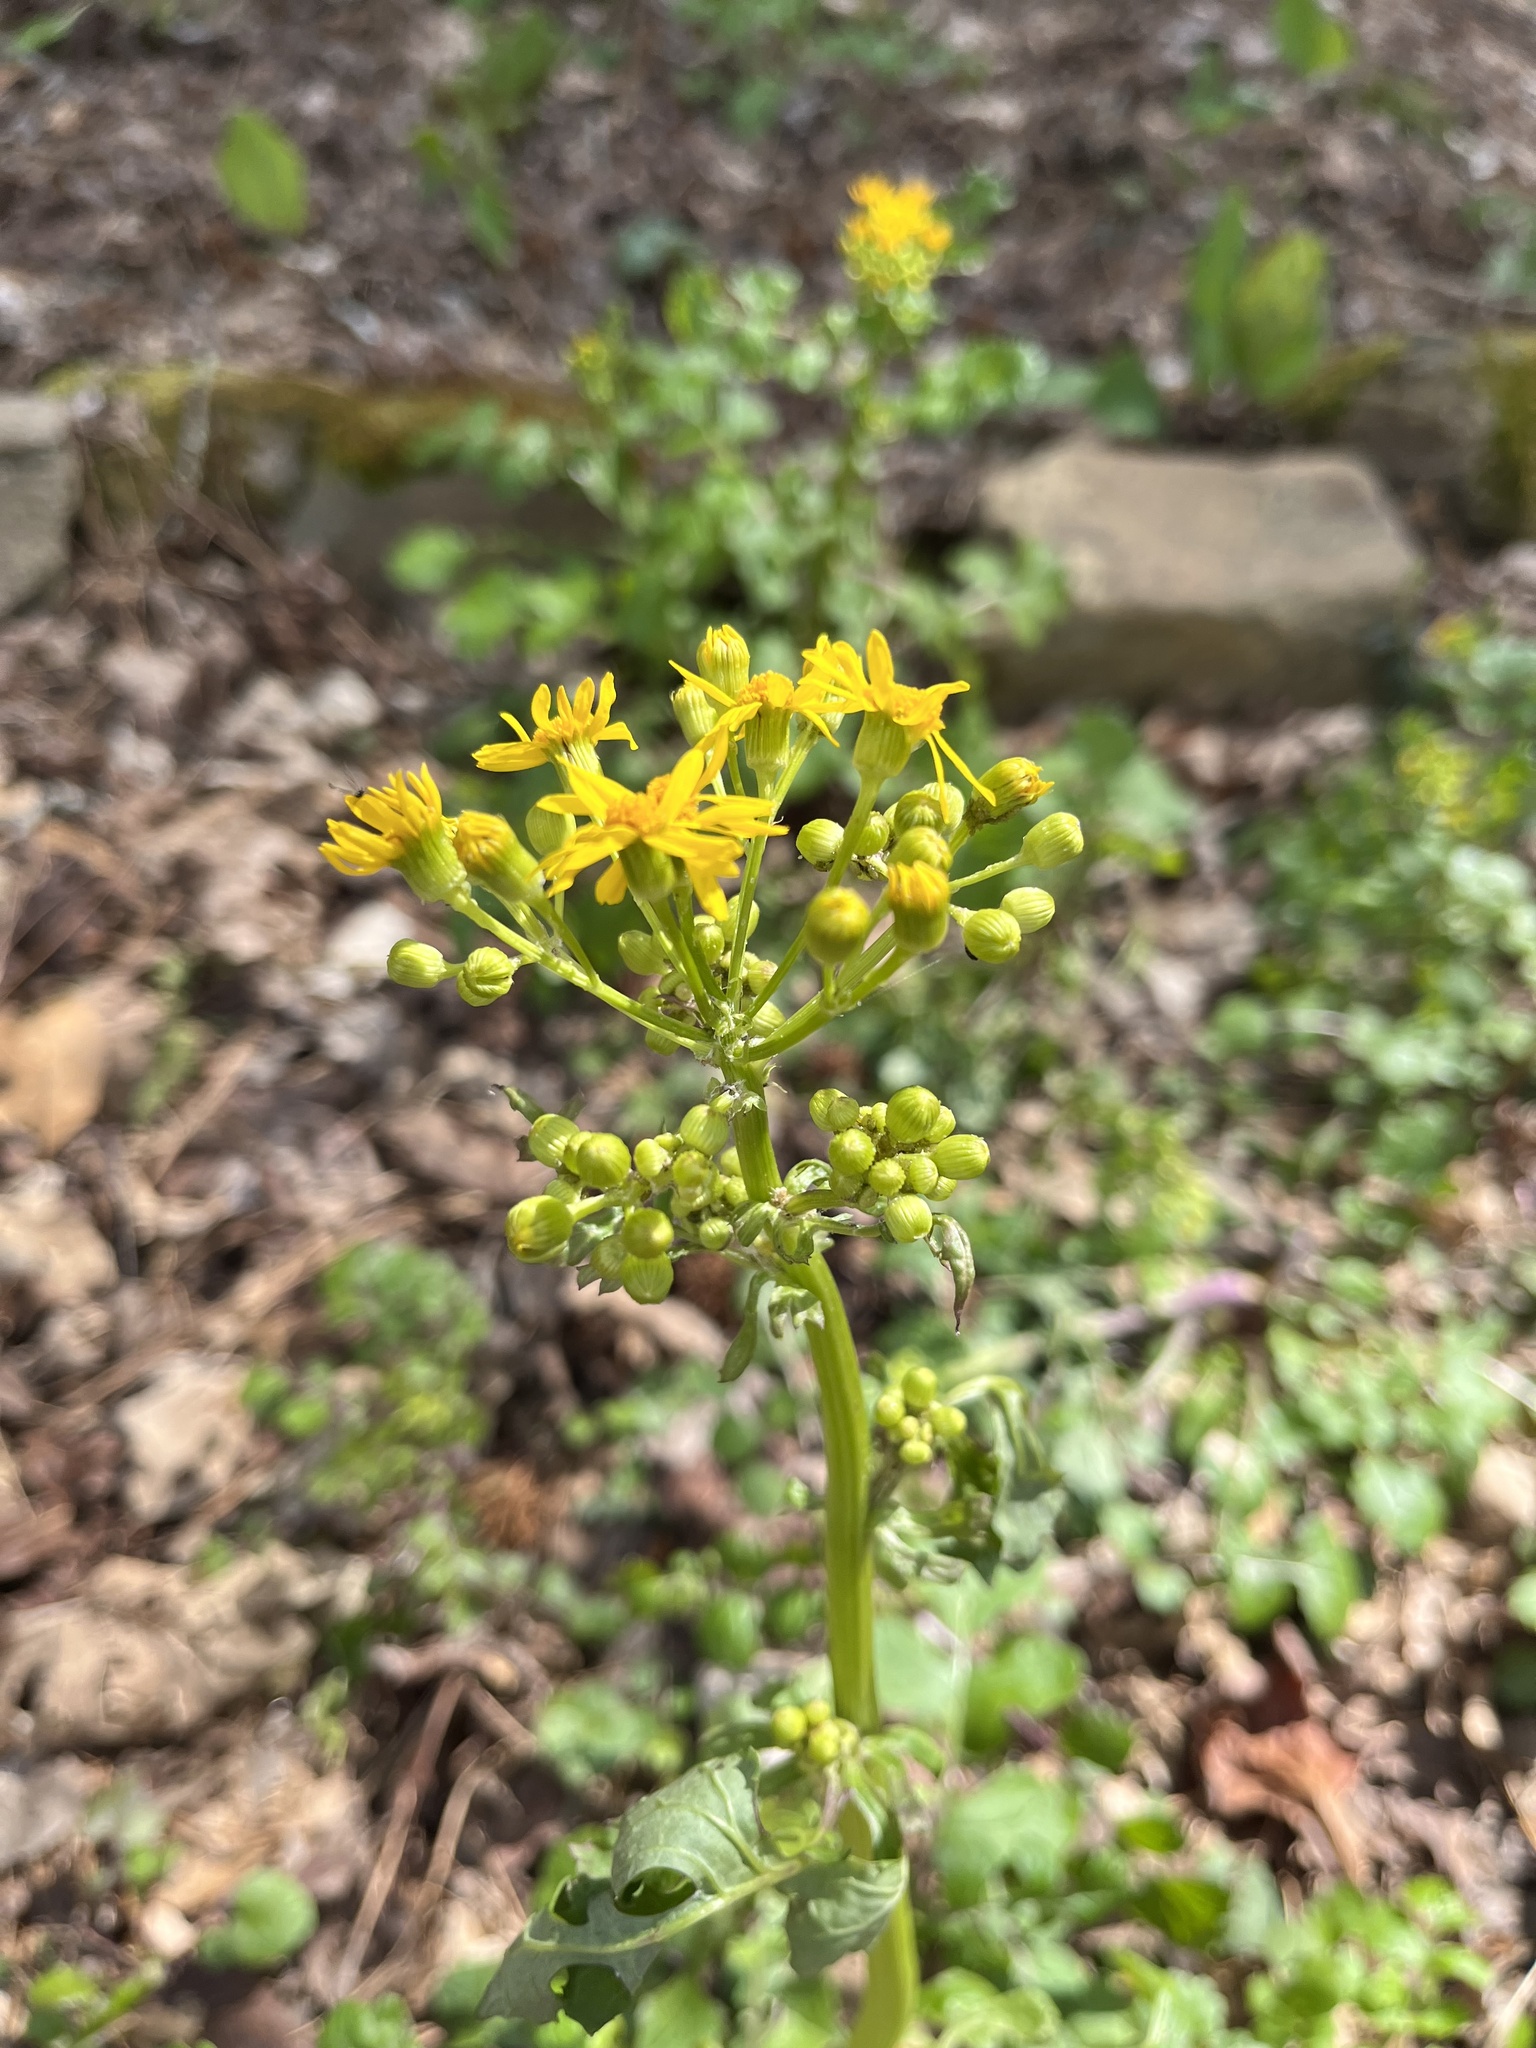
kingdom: Plantae
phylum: Tracheophyta
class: Magnoliopsida
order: Asterales
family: Asteraceae
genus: Packera
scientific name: Packera glabella
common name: Butterweed
